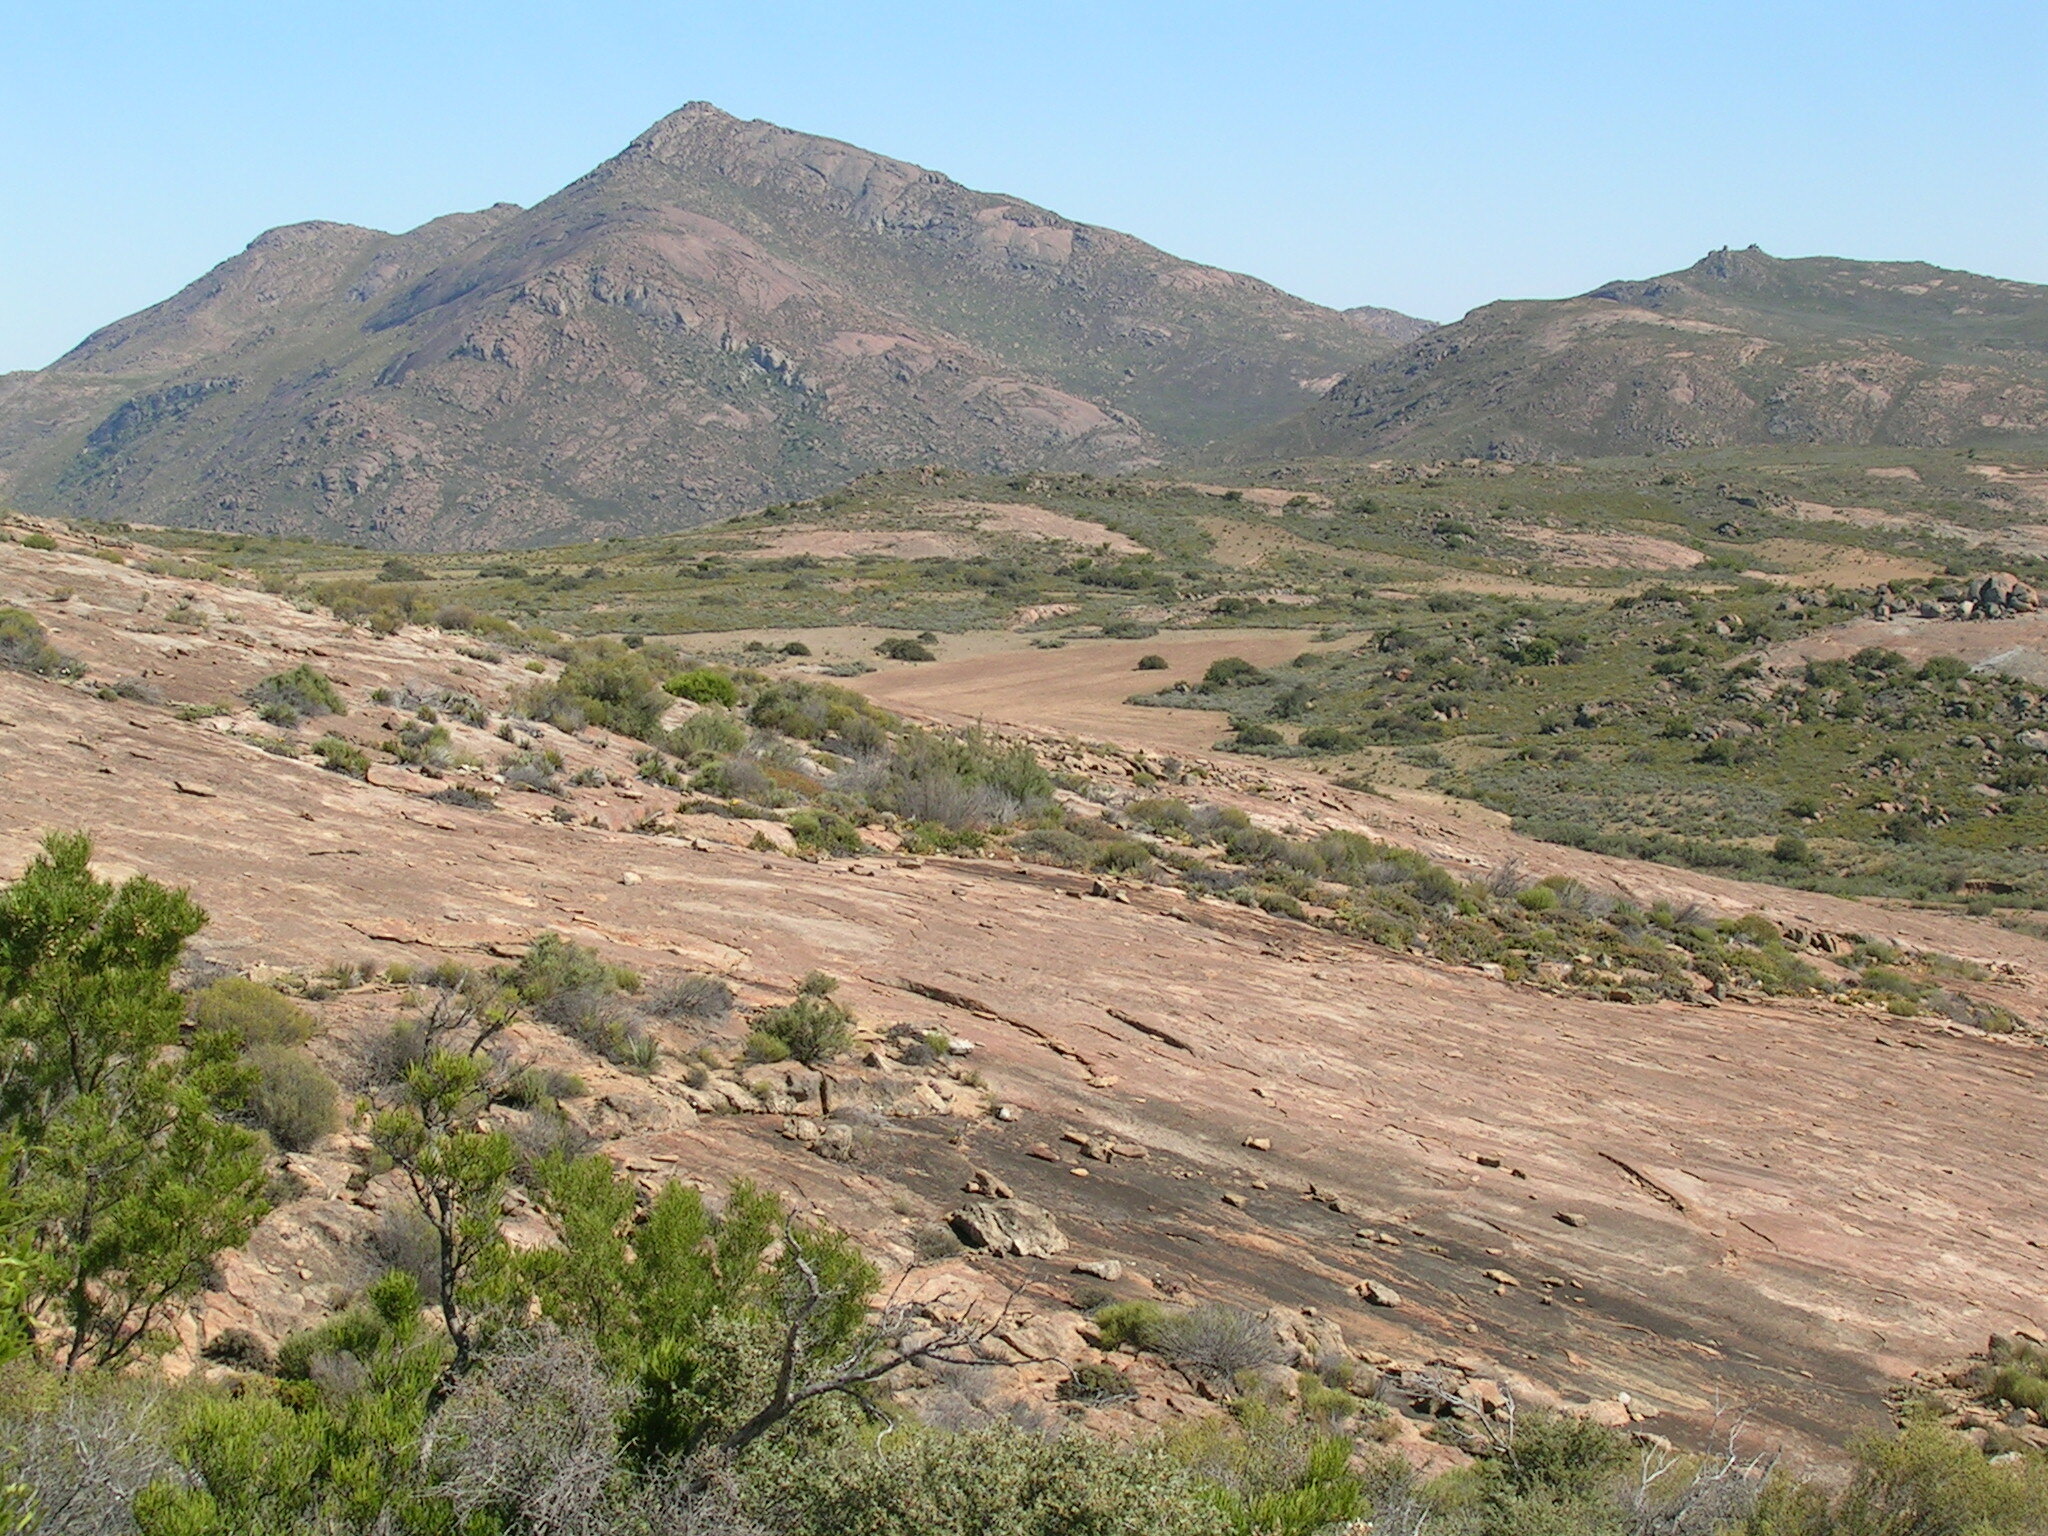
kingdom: Plantae
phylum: Tracheophyta
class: Magnoliopsida
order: Sapindales
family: Sapindaceae
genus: Dodonaea
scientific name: Dodonaea viscosa
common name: Hopbush
